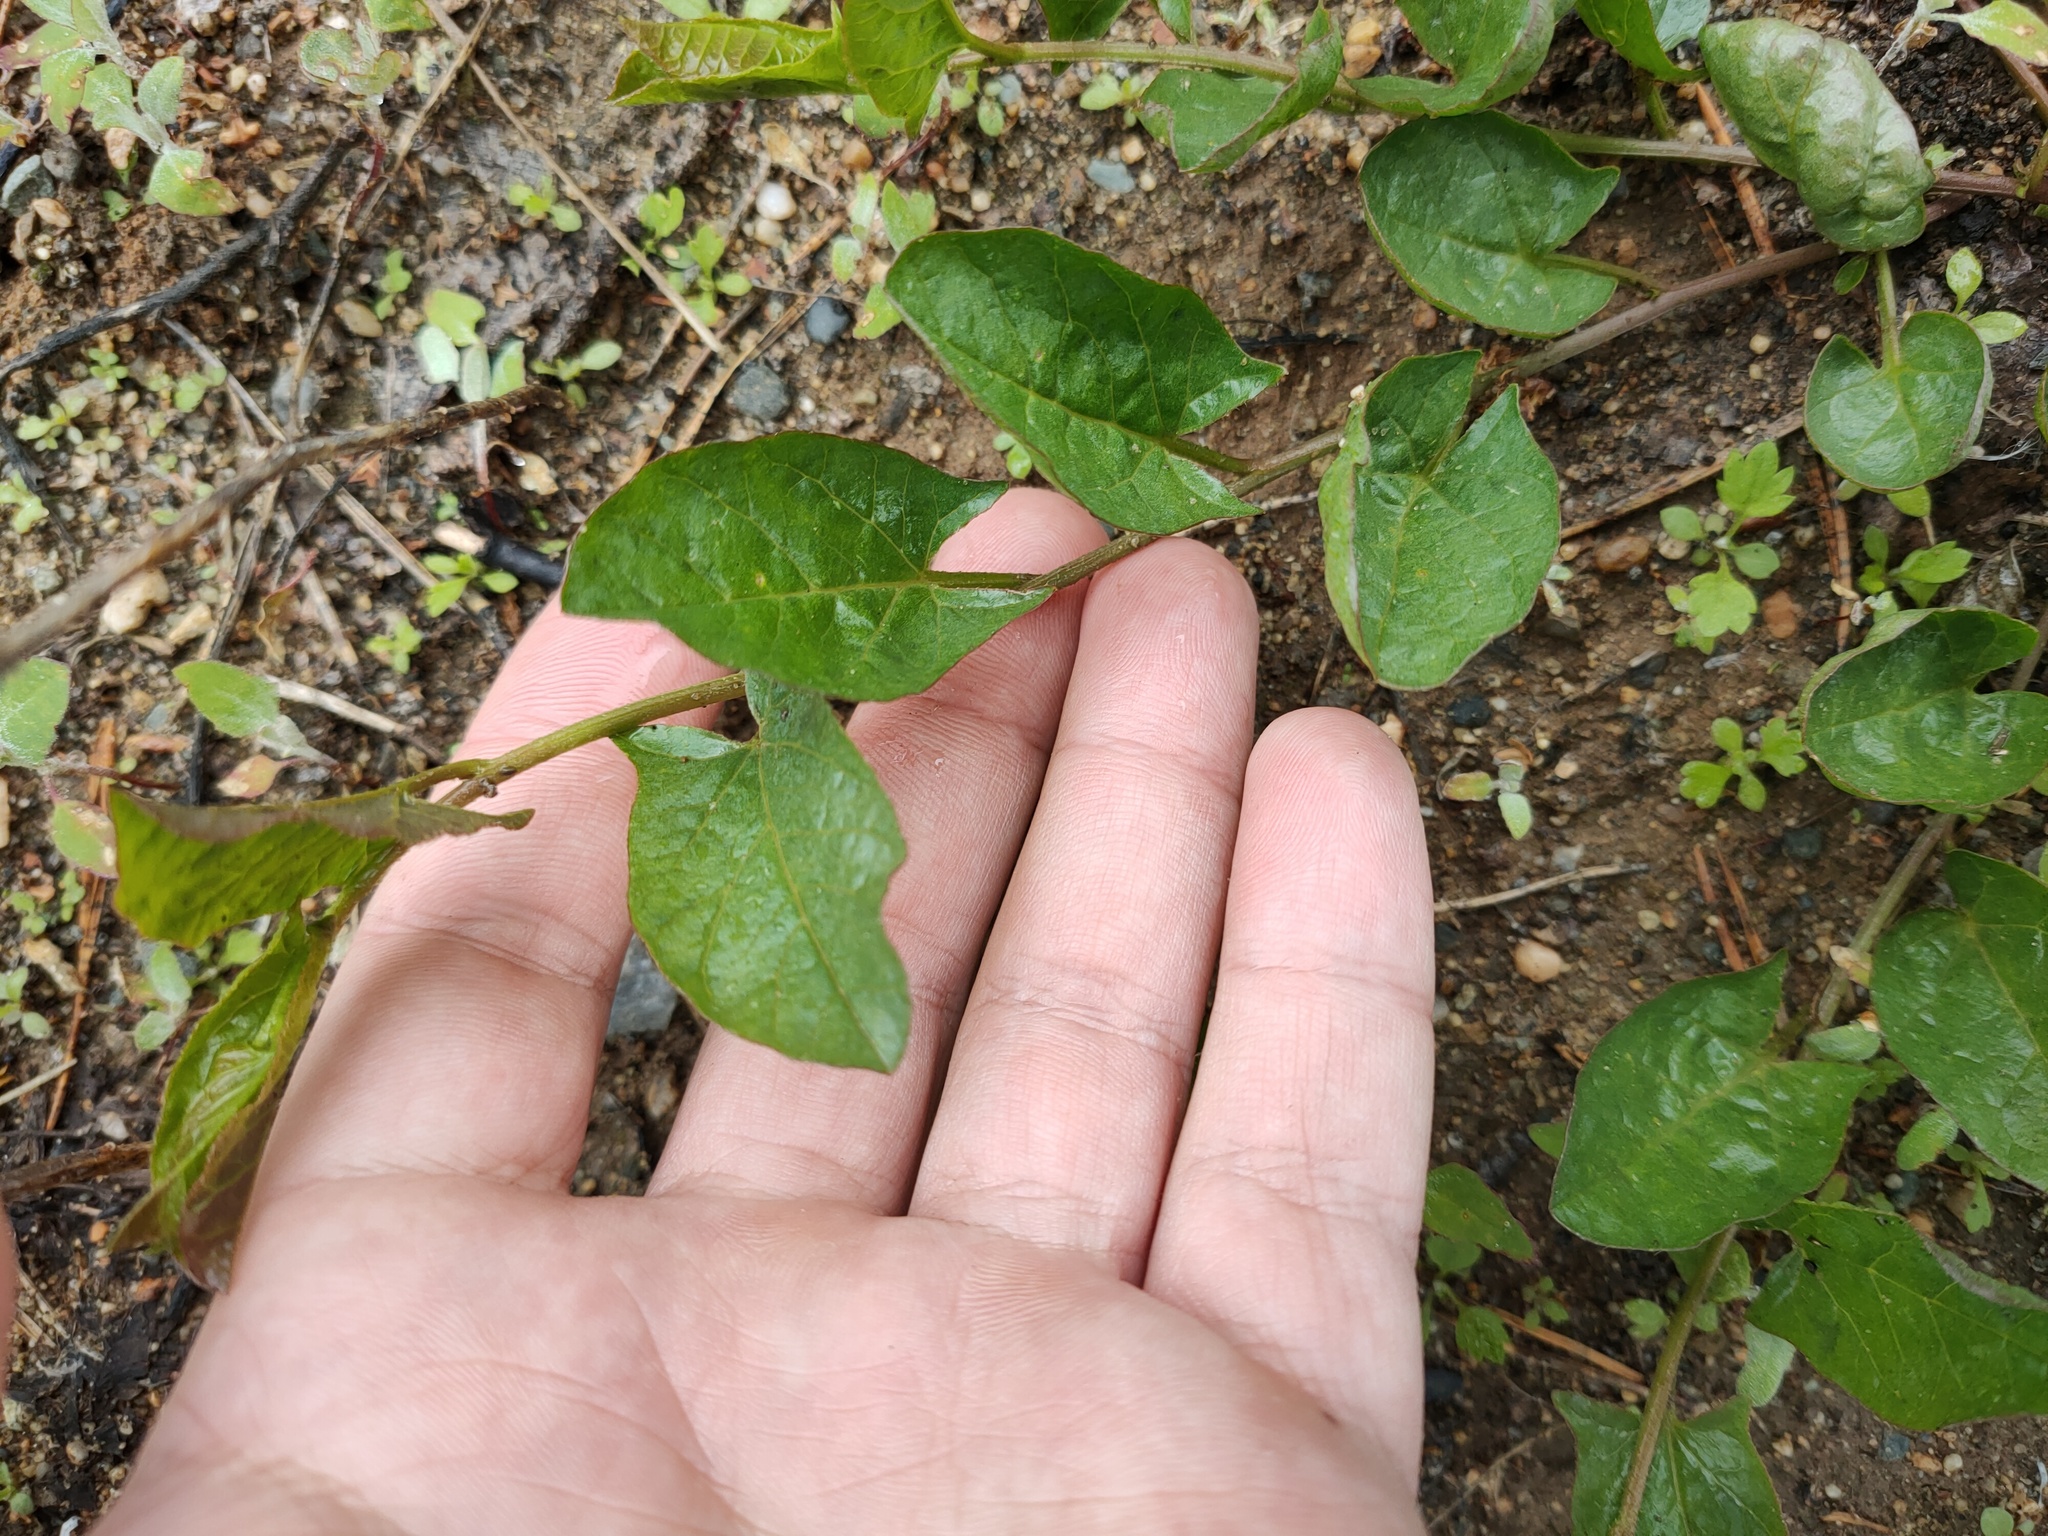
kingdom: Plantae
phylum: Tracheophyta
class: Magnoliopsida
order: Solanales
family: Convolvulaceae
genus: Convolvulus
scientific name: Convolvulus arvensis
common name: Field bindweed
